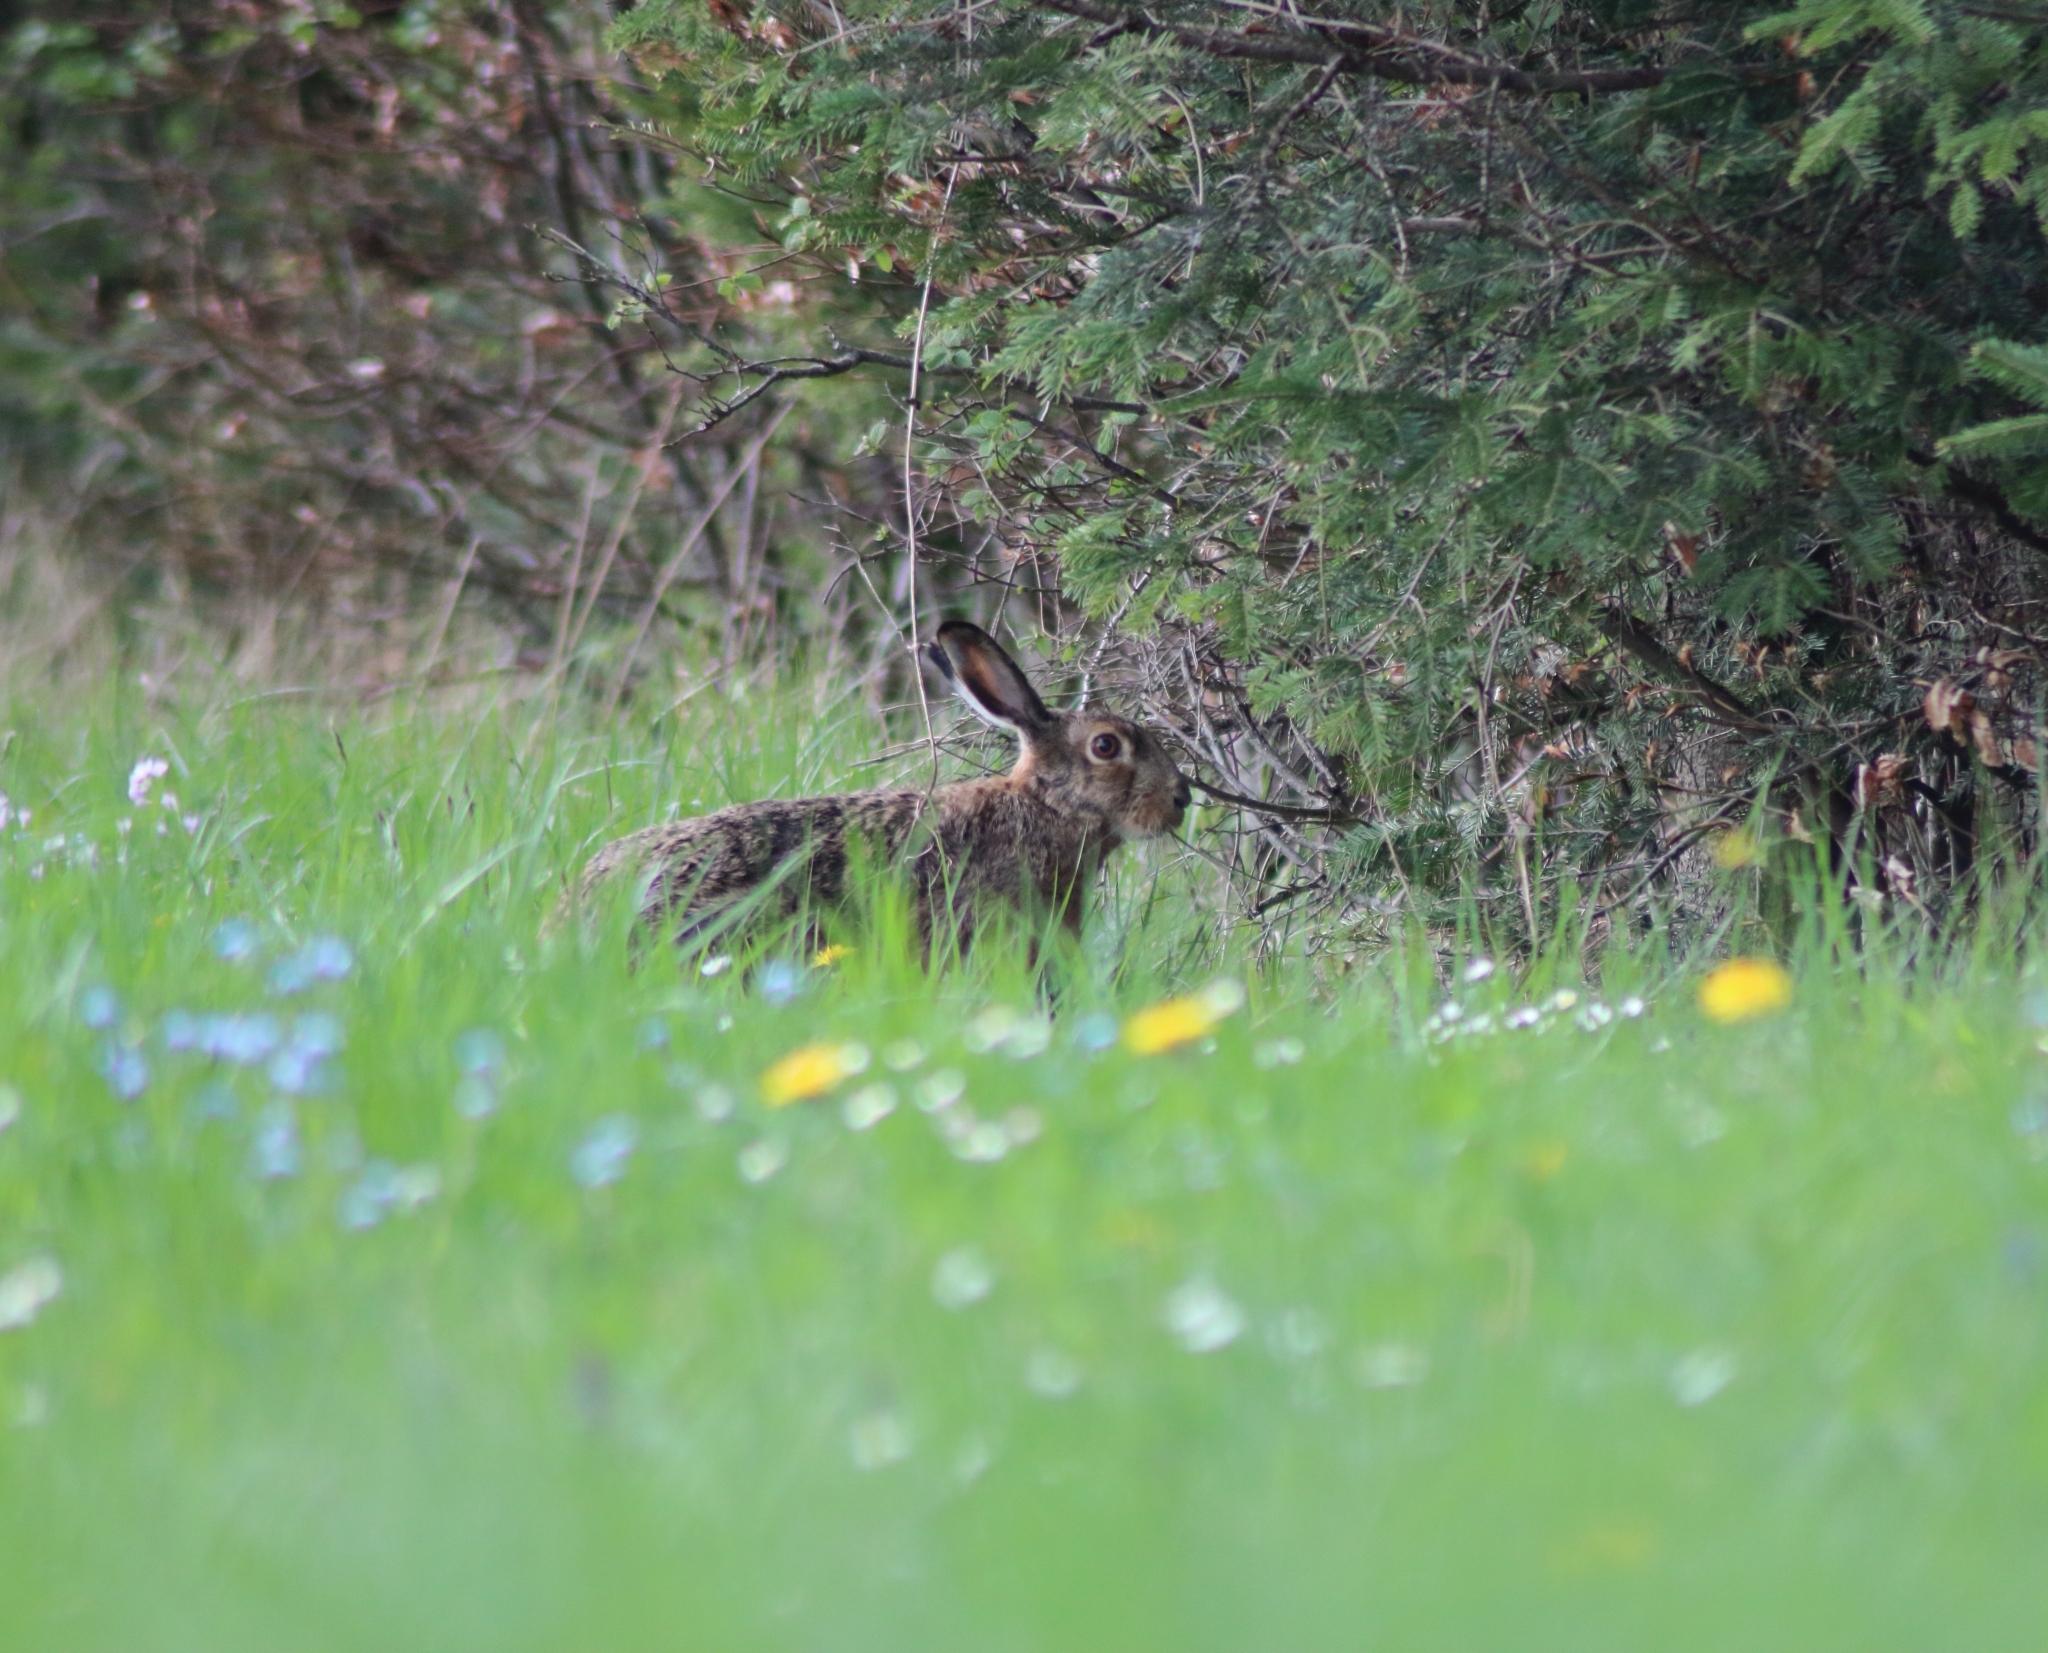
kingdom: Animalia
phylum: Chordata
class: Mammalia
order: Lagomorpha
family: Leporidae
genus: Lepus
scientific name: Lepus europaeus
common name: European hare
